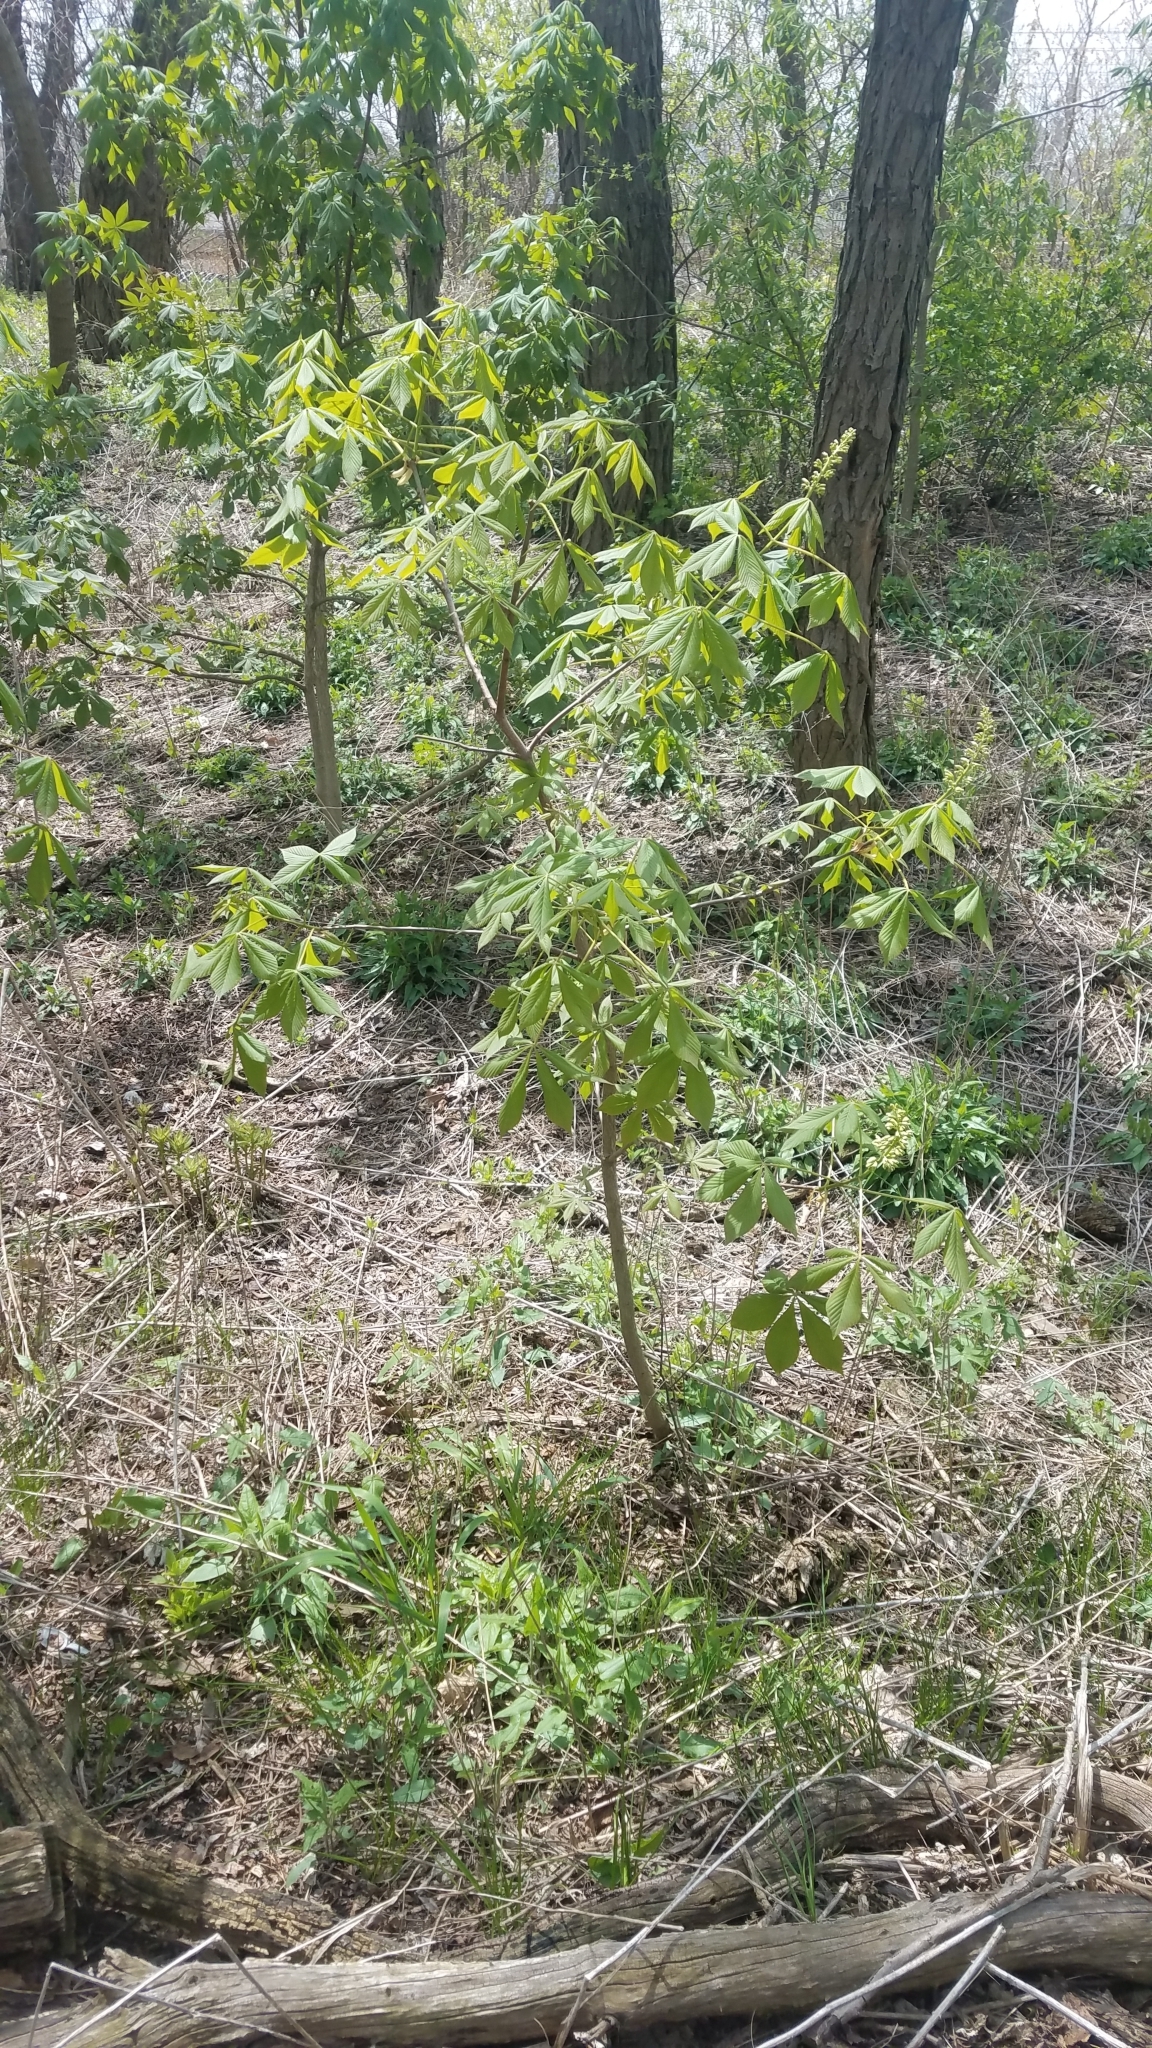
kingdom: Plantae
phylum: Tracheophyta
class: Magnoliopsida
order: Sapindales
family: Sapindaceae
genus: Aesculus
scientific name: Aesculus glabra
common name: Ohio buckeye
